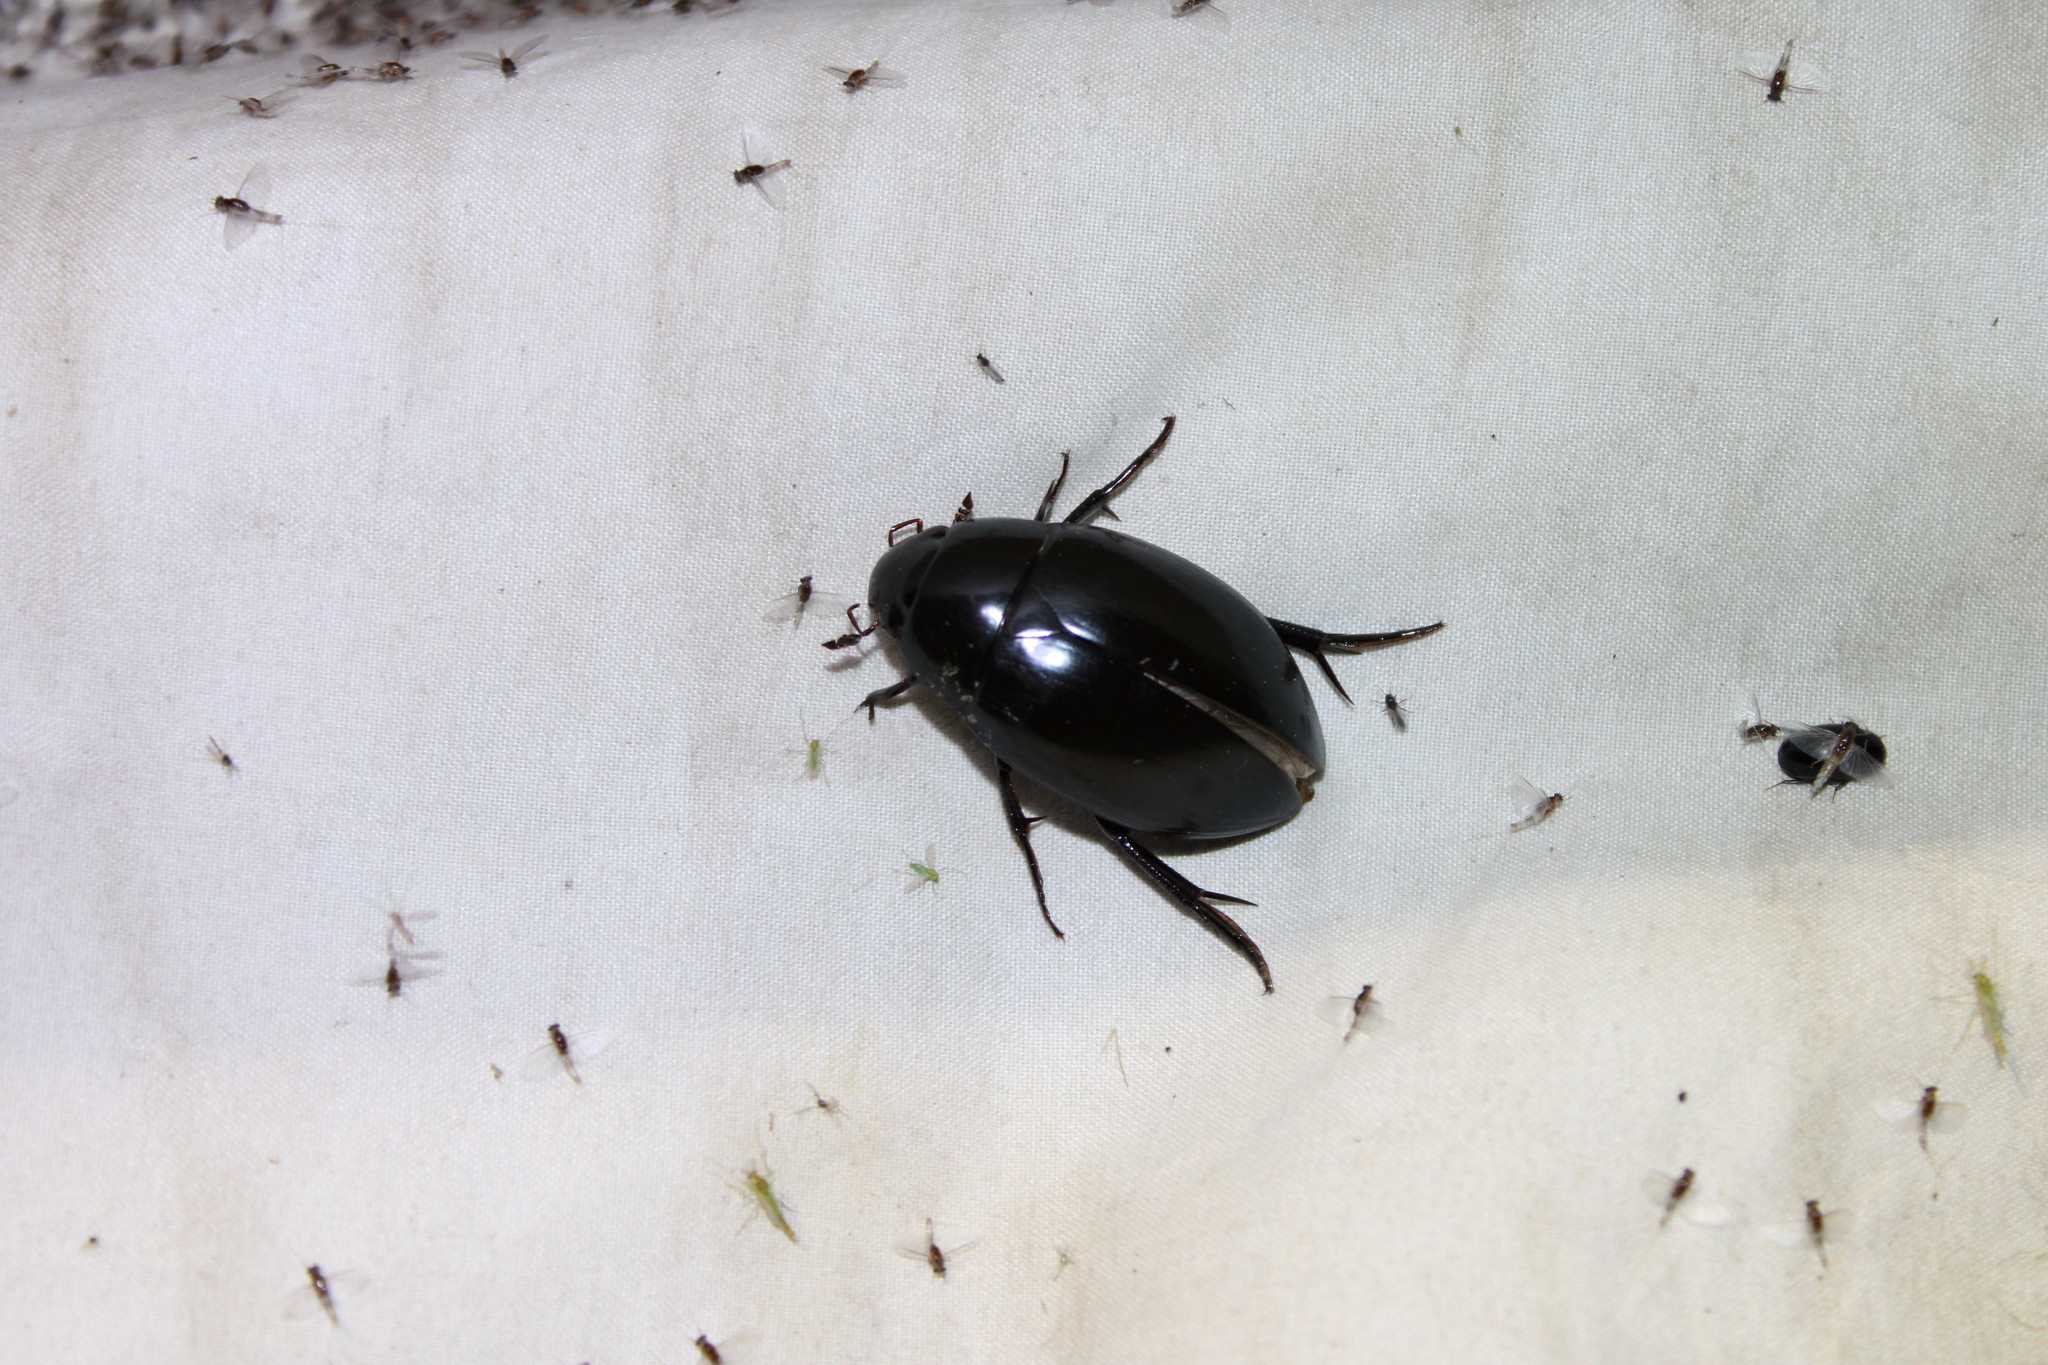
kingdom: Animalia
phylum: Arthropoda
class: Insecta
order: Coleoptera
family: Hydrophilidae
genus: Hydrophilus
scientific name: Hydrophilus ovatus
